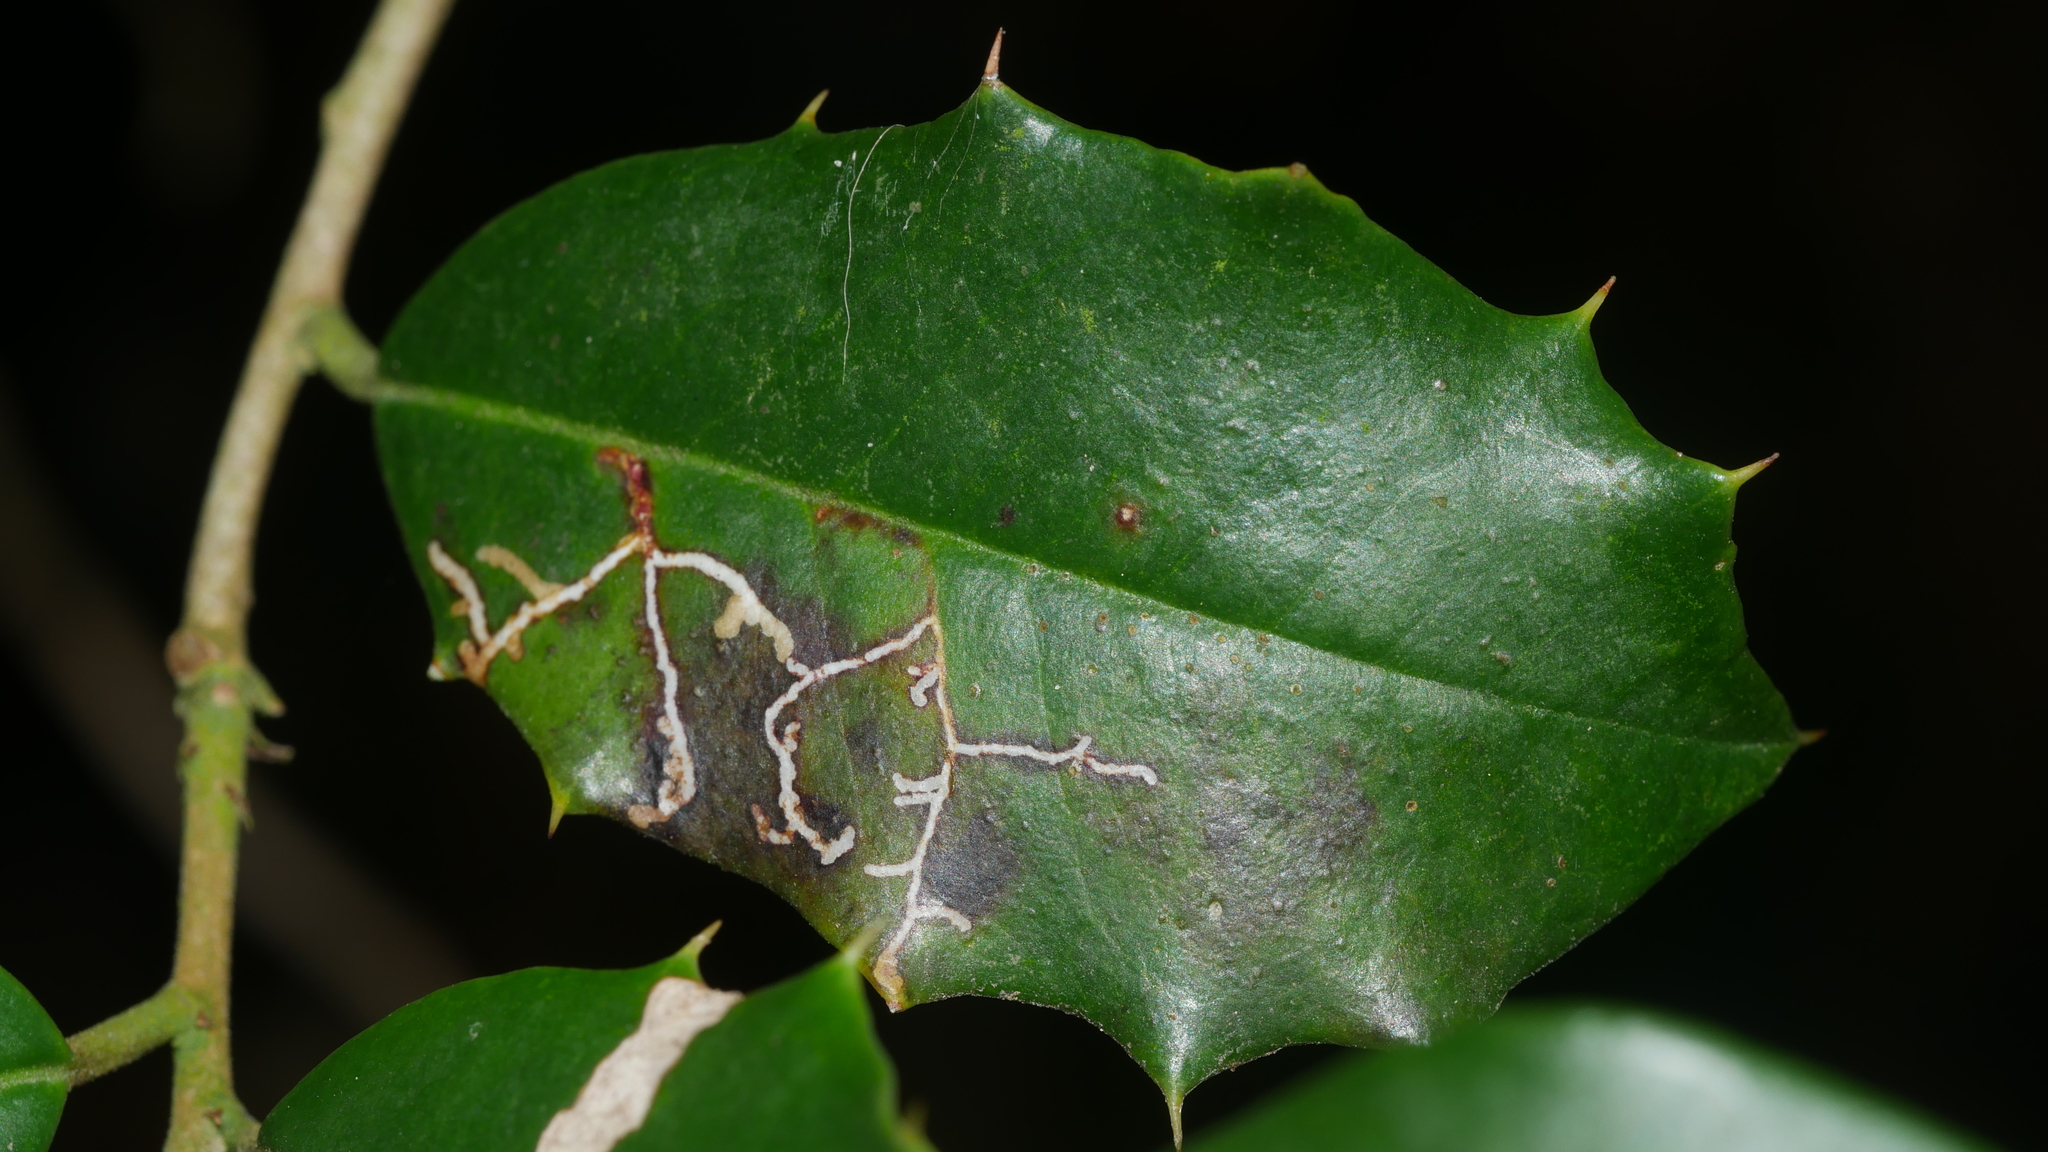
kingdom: Animalia
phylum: Arthropoda
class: Insecta
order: Lepidoptera
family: Tortricidae
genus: Rhopobota
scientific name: Rhopobota
